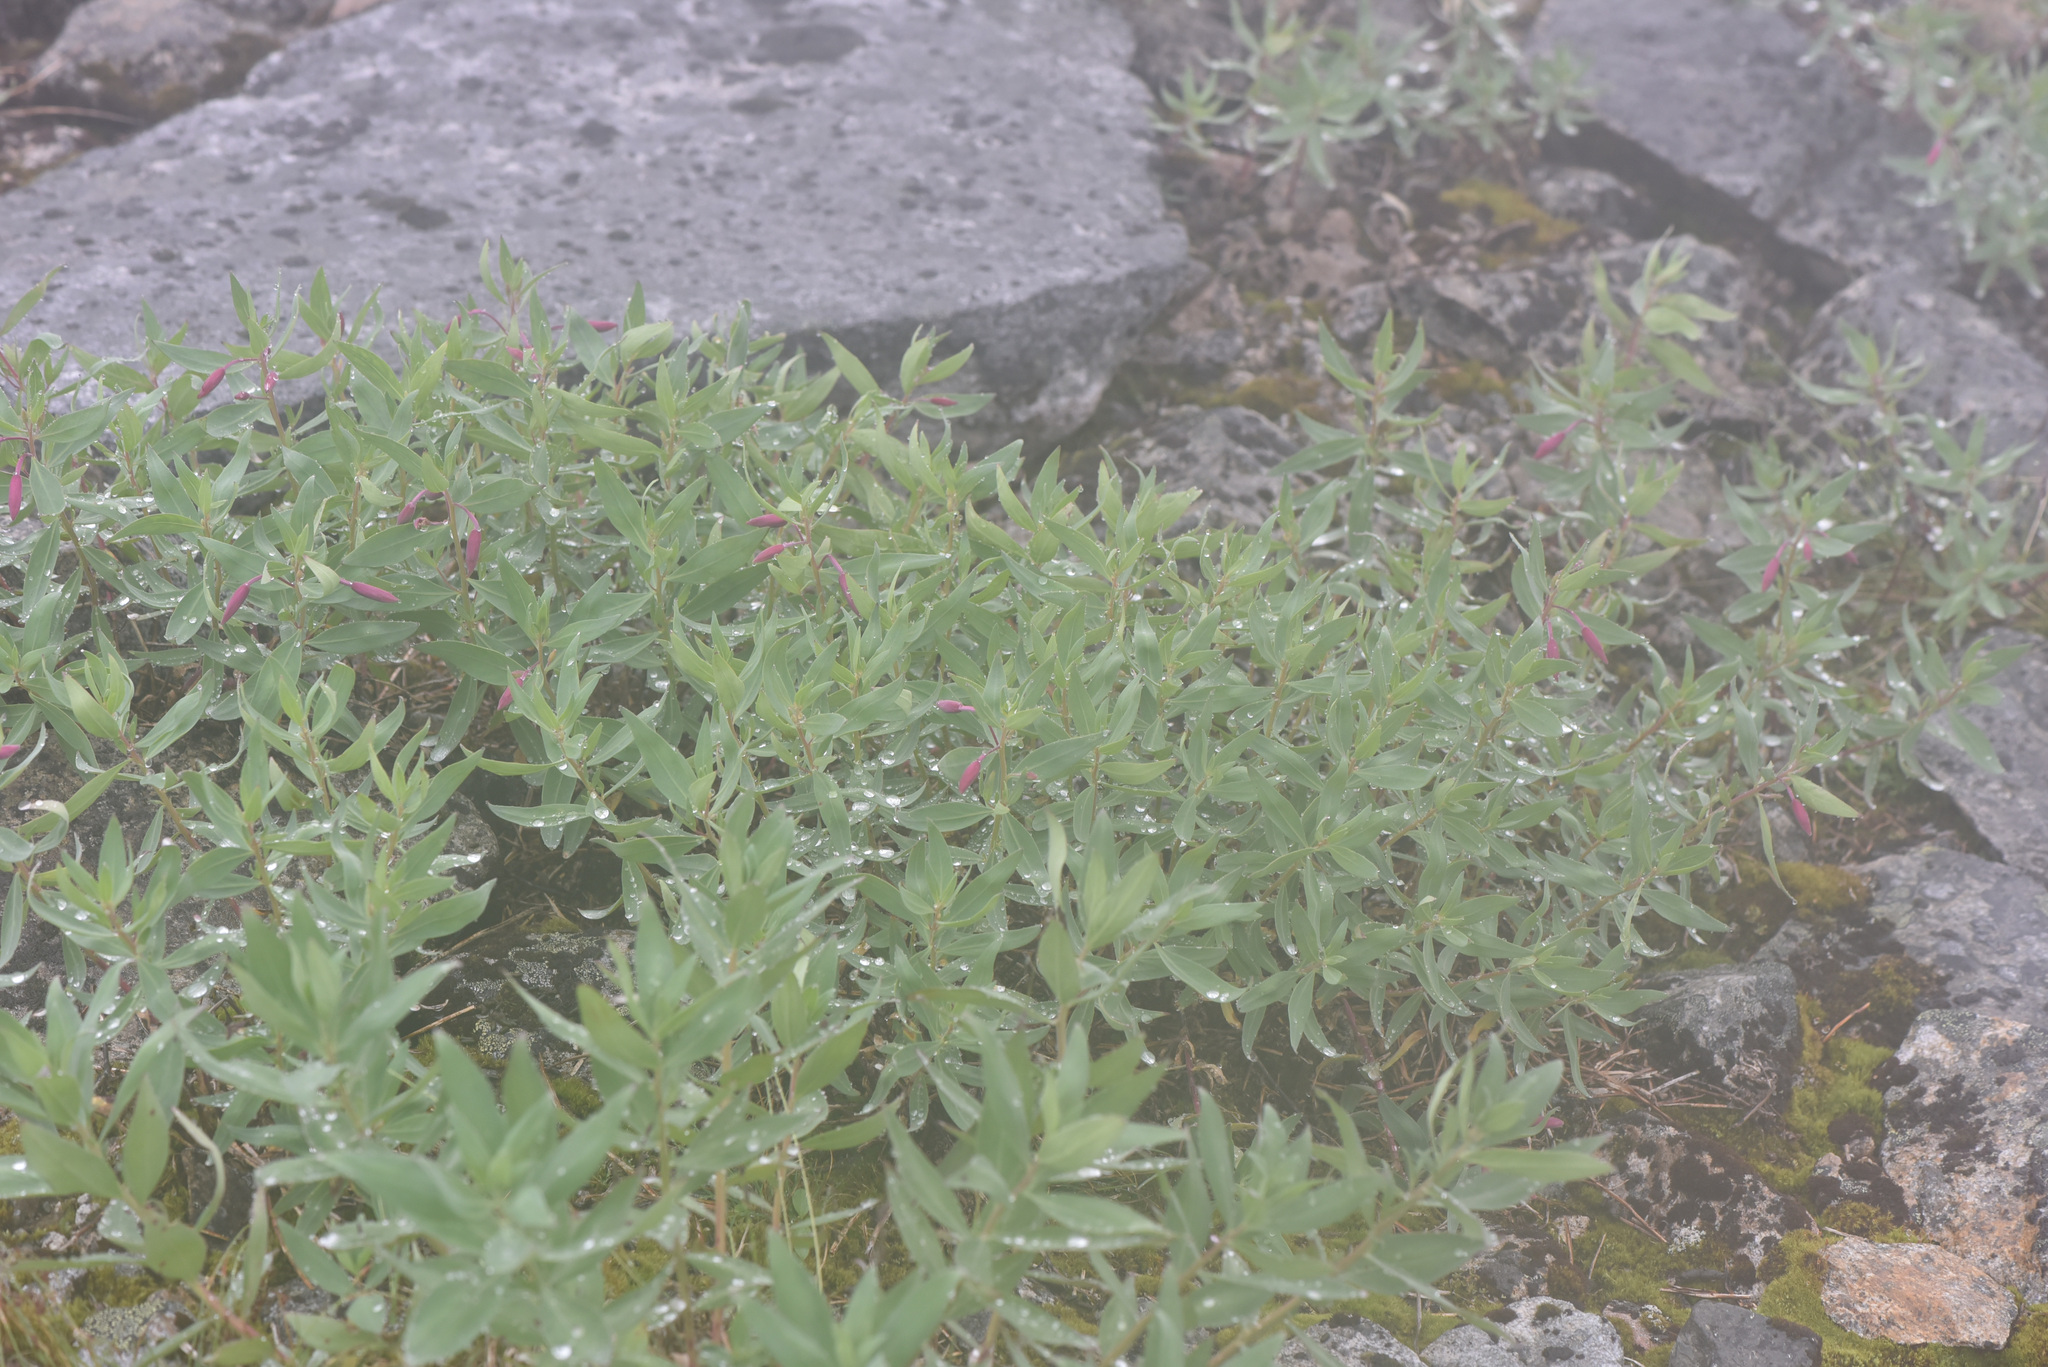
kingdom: Plantae
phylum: Tracheophyta
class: Magnoliopsida
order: Myrtales
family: Onagraceae
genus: Chamaenerion
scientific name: Chamaenerion latifolium
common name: Dwarf fireweed
